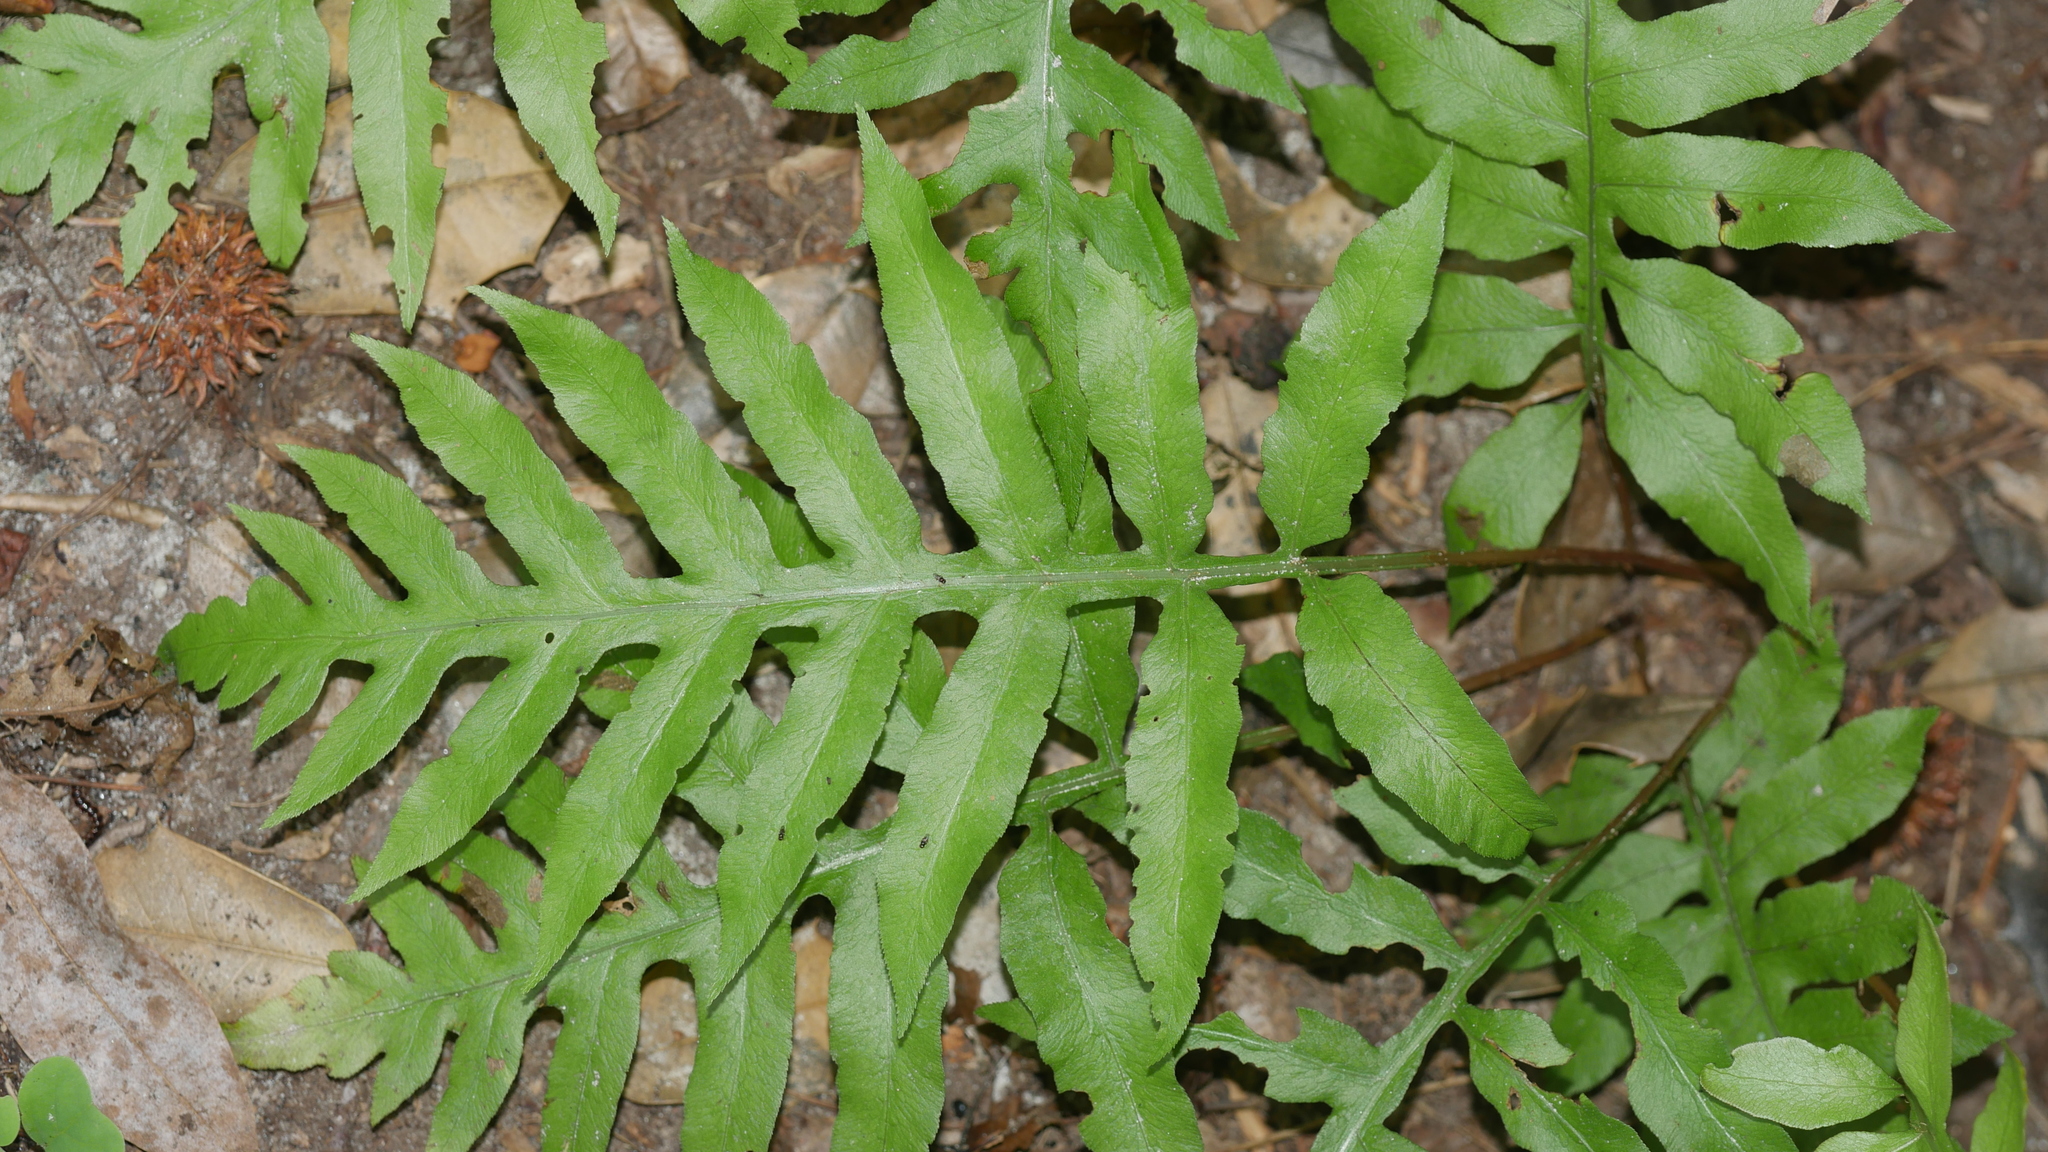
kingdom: Plantae
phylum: Tracheophyta
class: Polypodiopsida
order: Polypodiales
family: Blechnaceae
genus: Lorinseria
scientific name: Lorinseria areolata
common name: Dwarf chain fern
